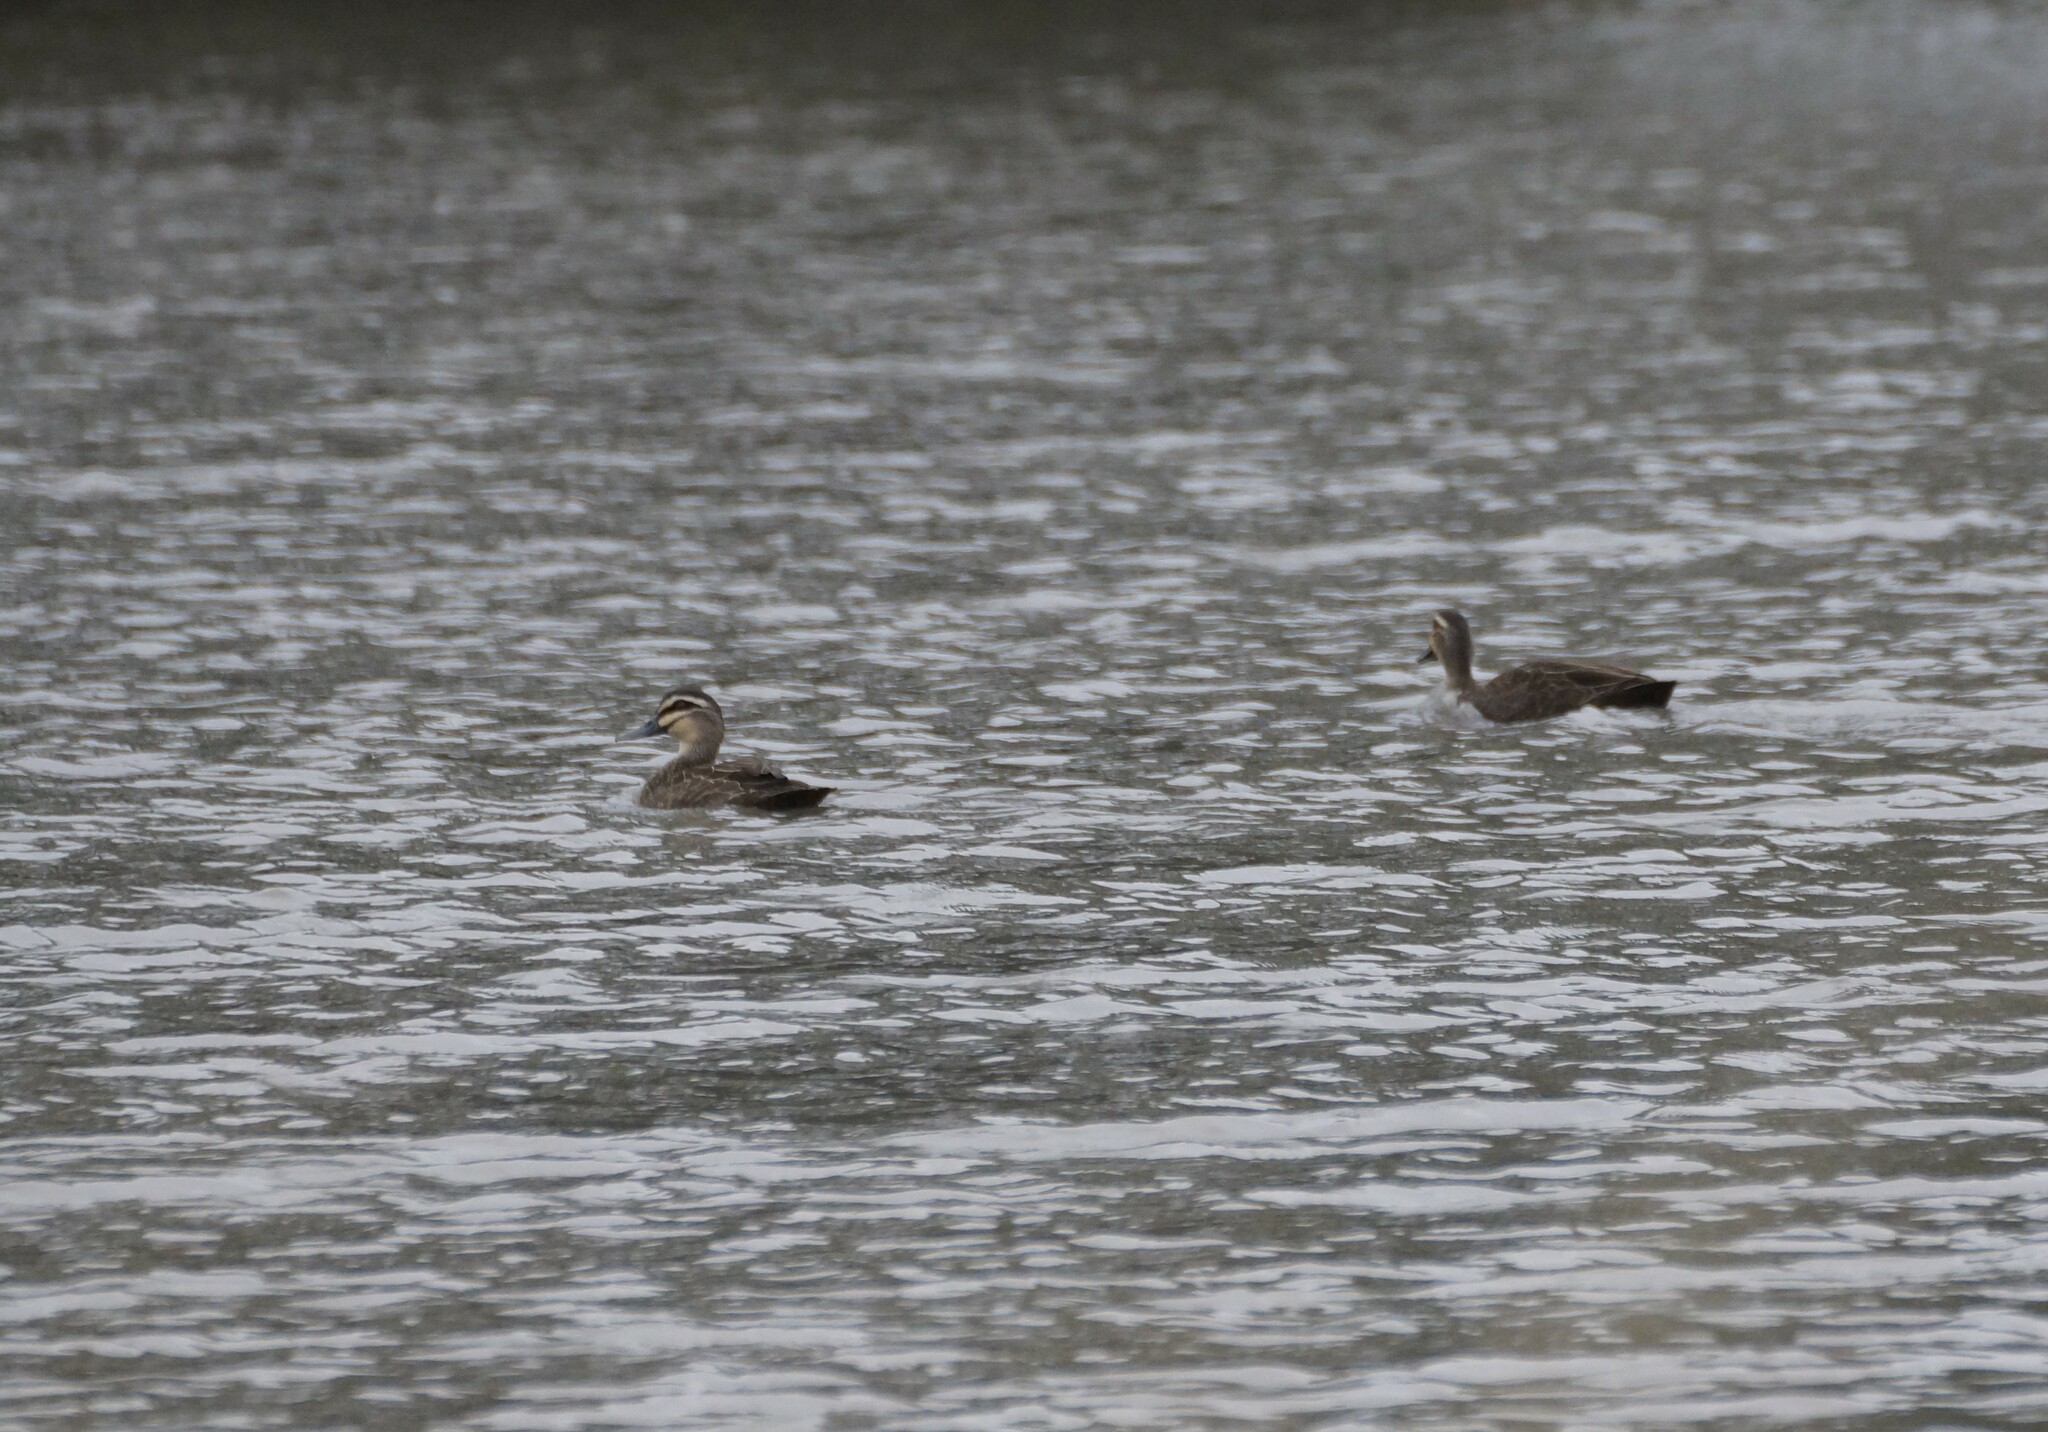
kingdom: Animalia
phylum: Chordata
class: Aves
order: Anseriformes
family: Anatidae
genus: Anas
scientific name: Anas superciliosa
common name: Pacific black duck
